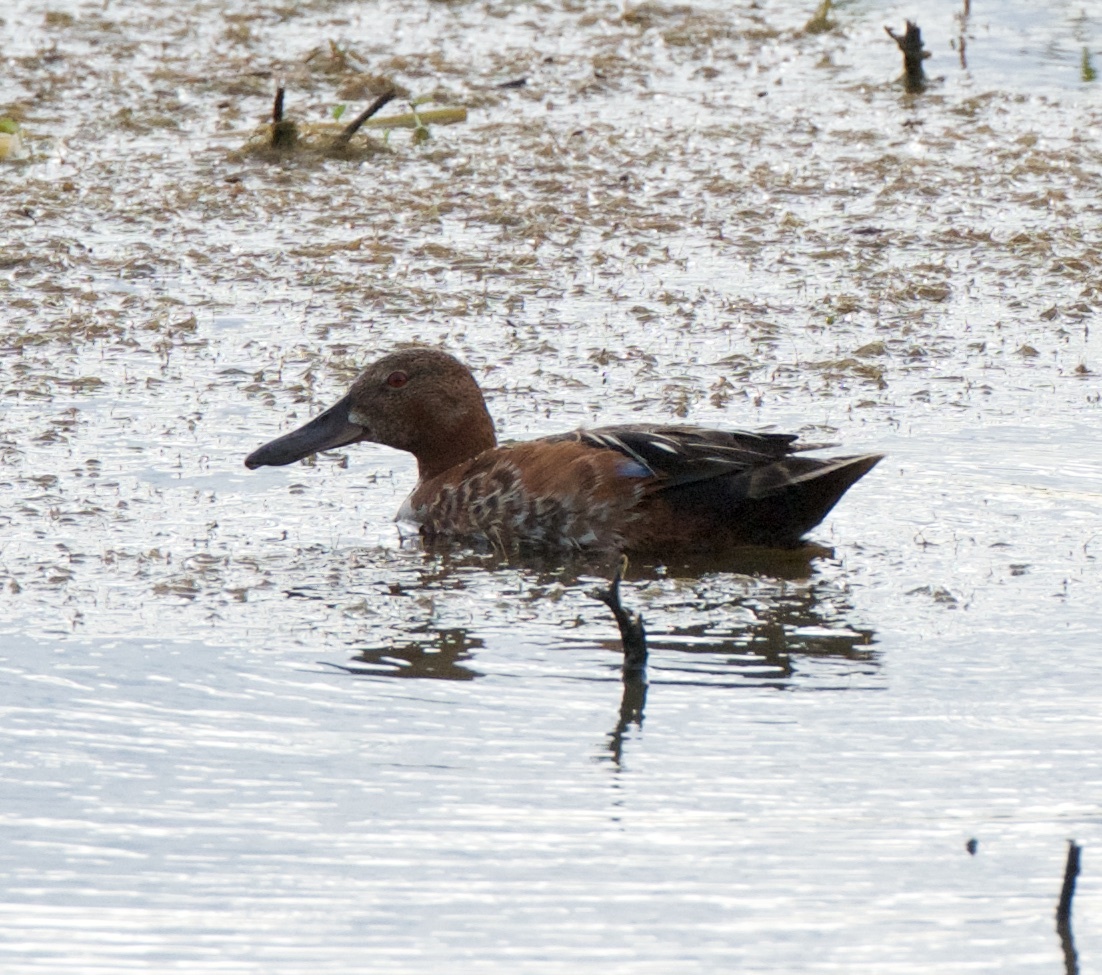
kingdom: Animalia
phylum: Chordata
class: Aves
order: Anseriformes
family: Anatidae
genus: Spatula
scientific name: Spatula cyanoptera
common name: Cinnamon teal
